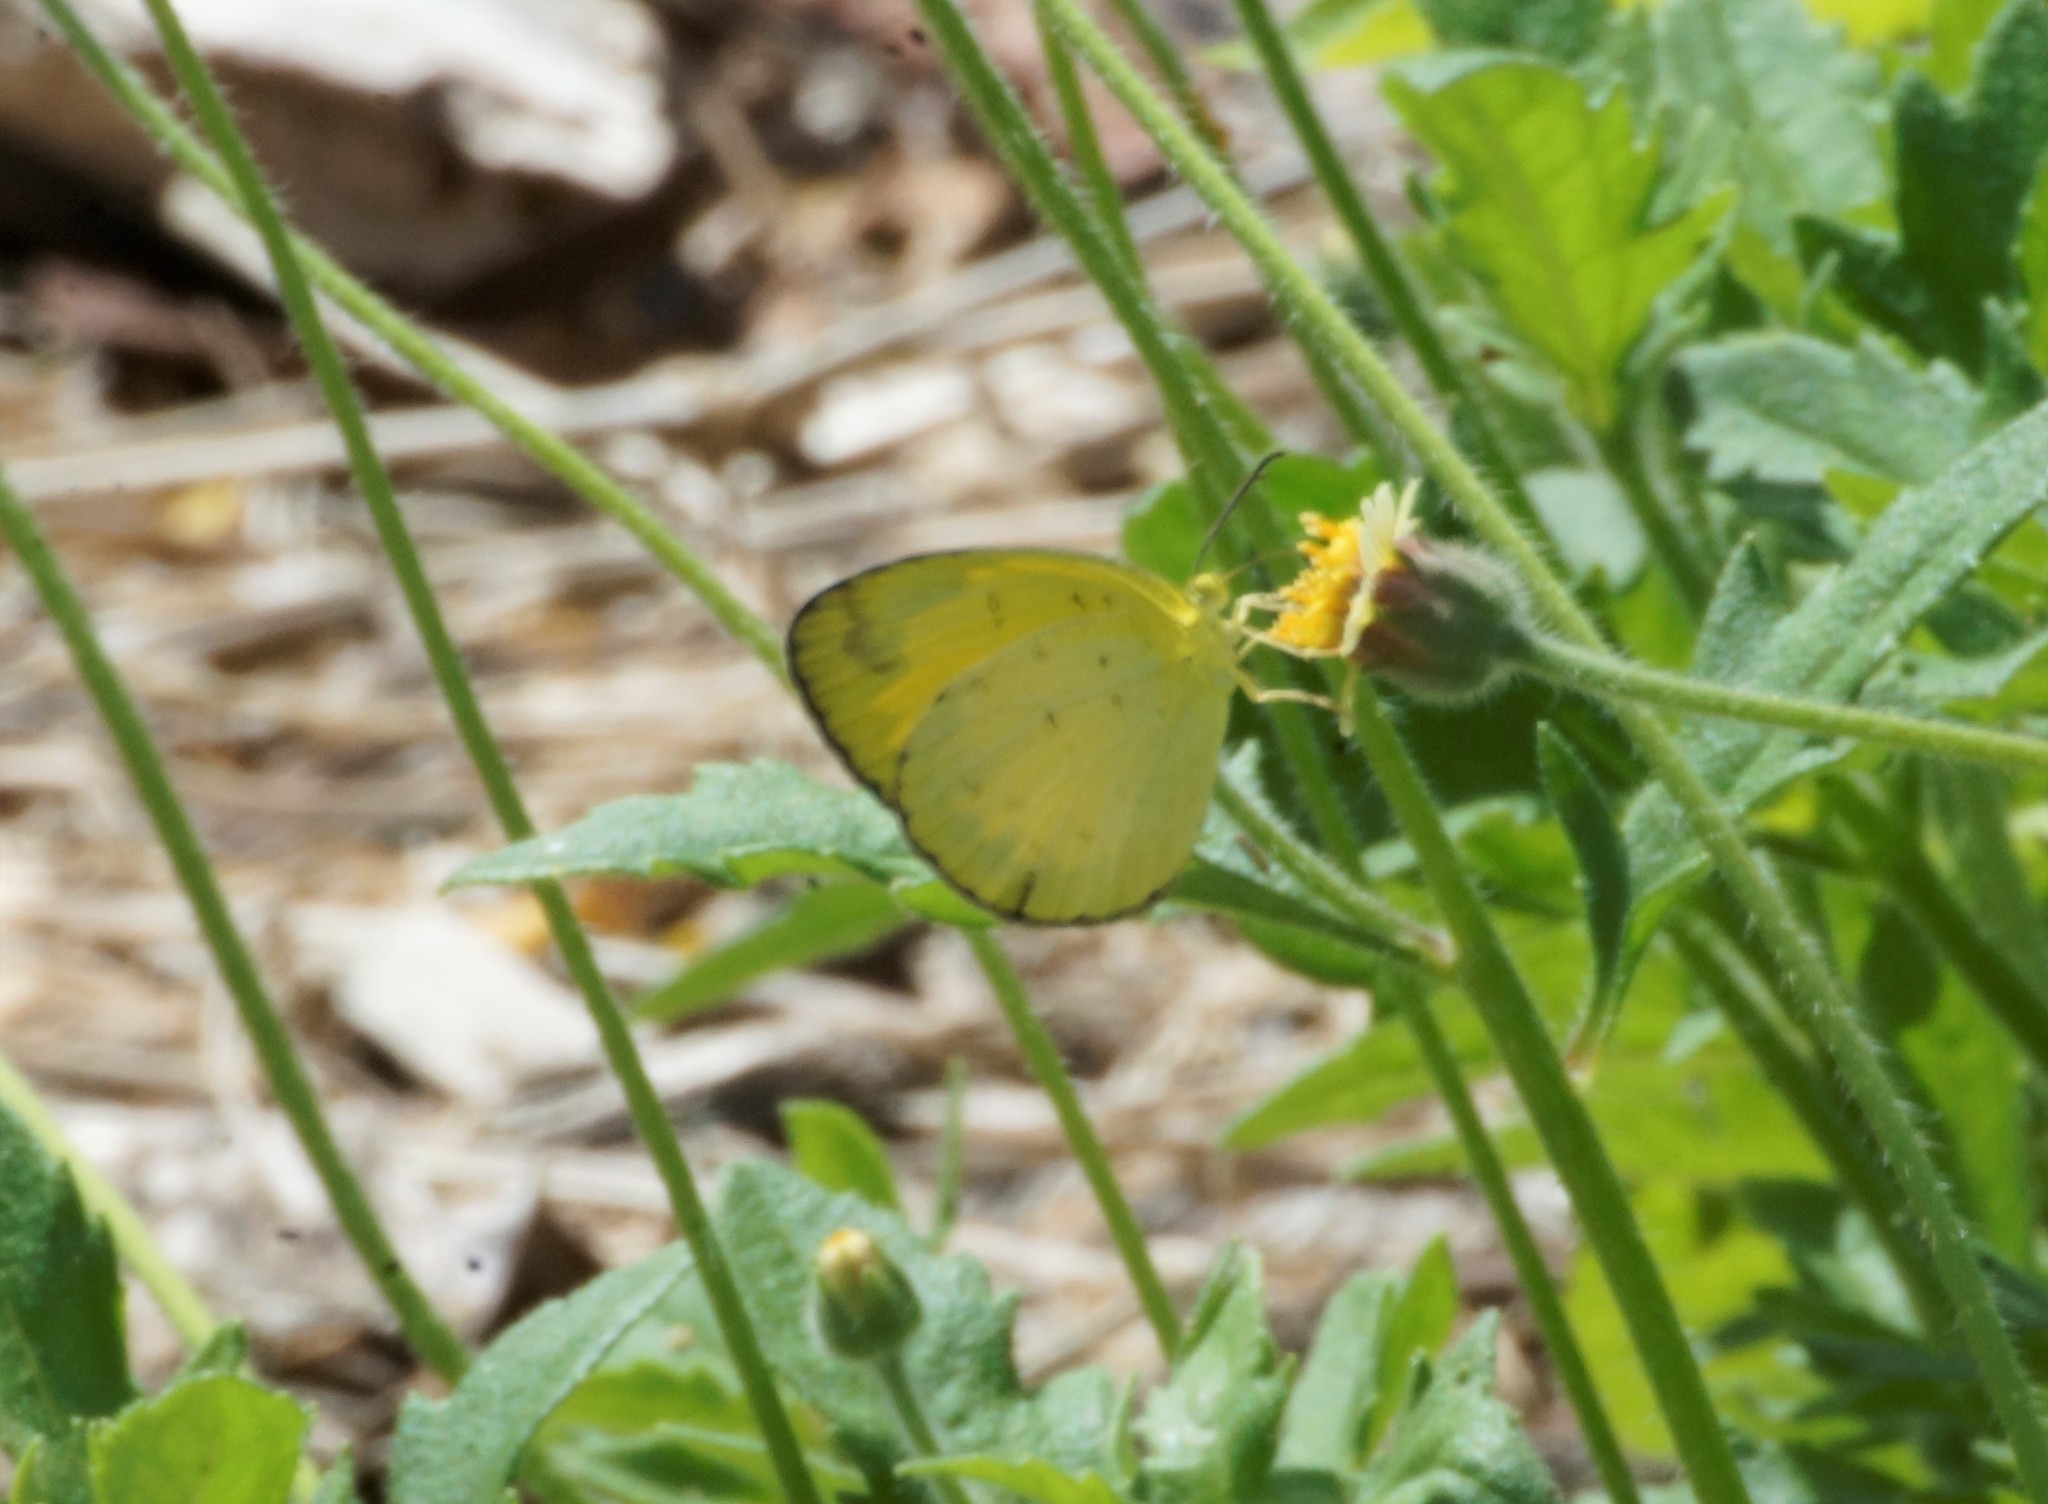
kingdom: Animalia
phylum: Arthropoda
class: Insecta
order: Lepidoptera
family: Pieridae
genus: Eurema
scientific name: Eurema alitha
